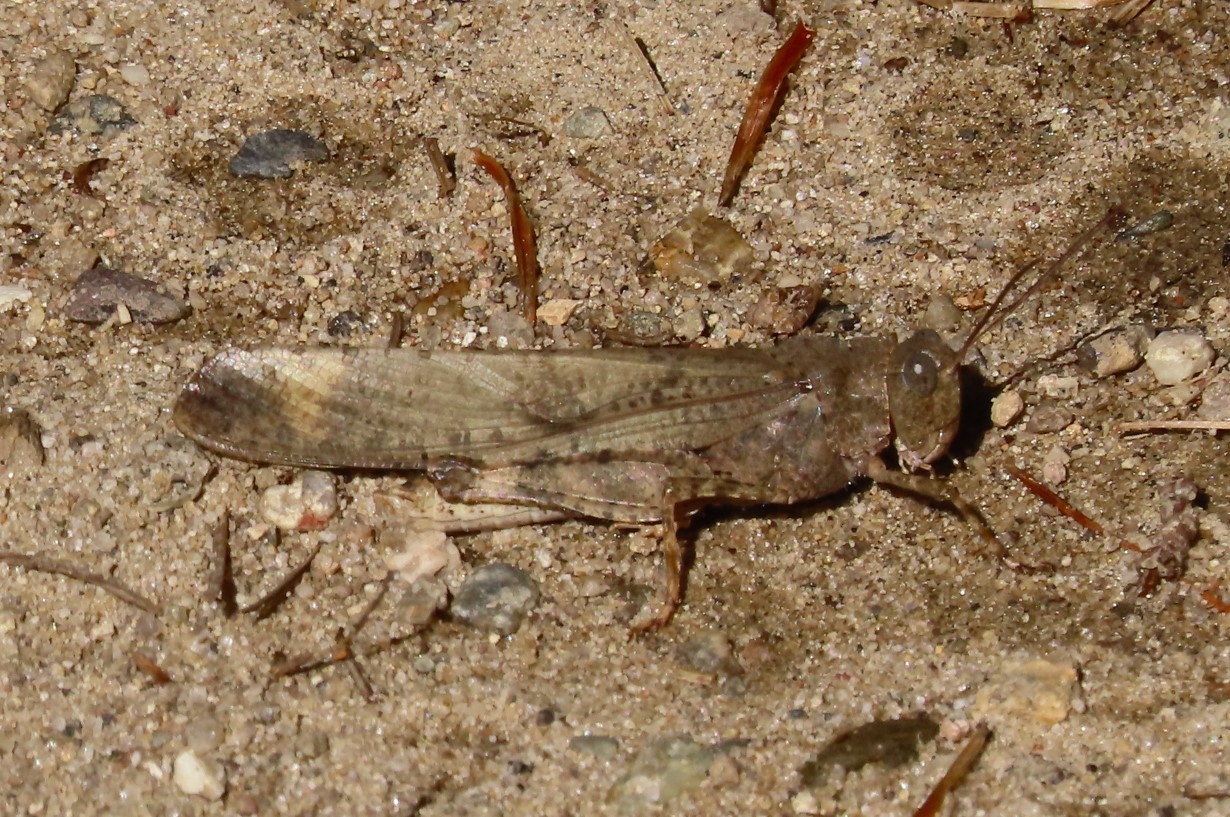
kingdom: Animalia
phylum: Arthropoda
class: Insecta
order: Orthoptera
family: Acrididae
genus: Dissosteira
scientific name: Dissosteira carolina
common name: Carolina grasshopper
